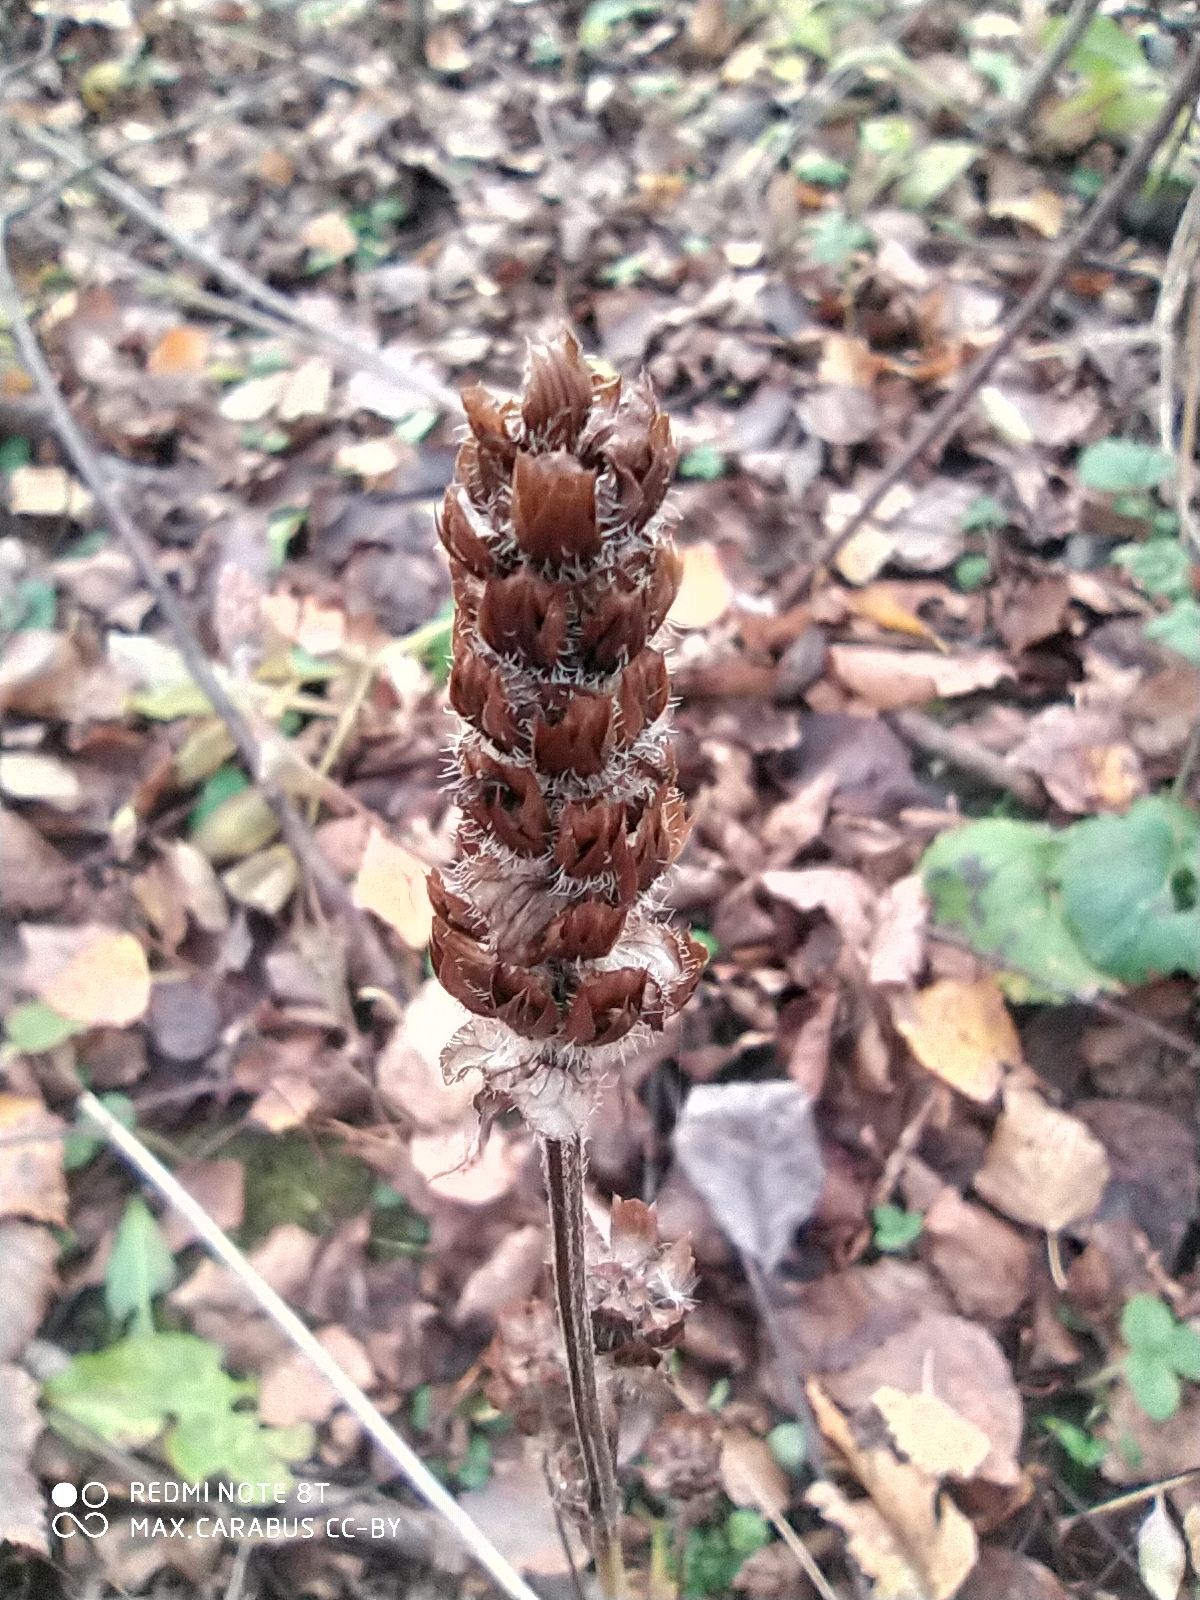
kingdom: Plantae
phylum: Tracheophyta
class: Magnoliopsida
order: Lamiales
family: Lamiaceae
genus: Prunella
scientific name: Prunella vulgaris
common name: Heal-all
